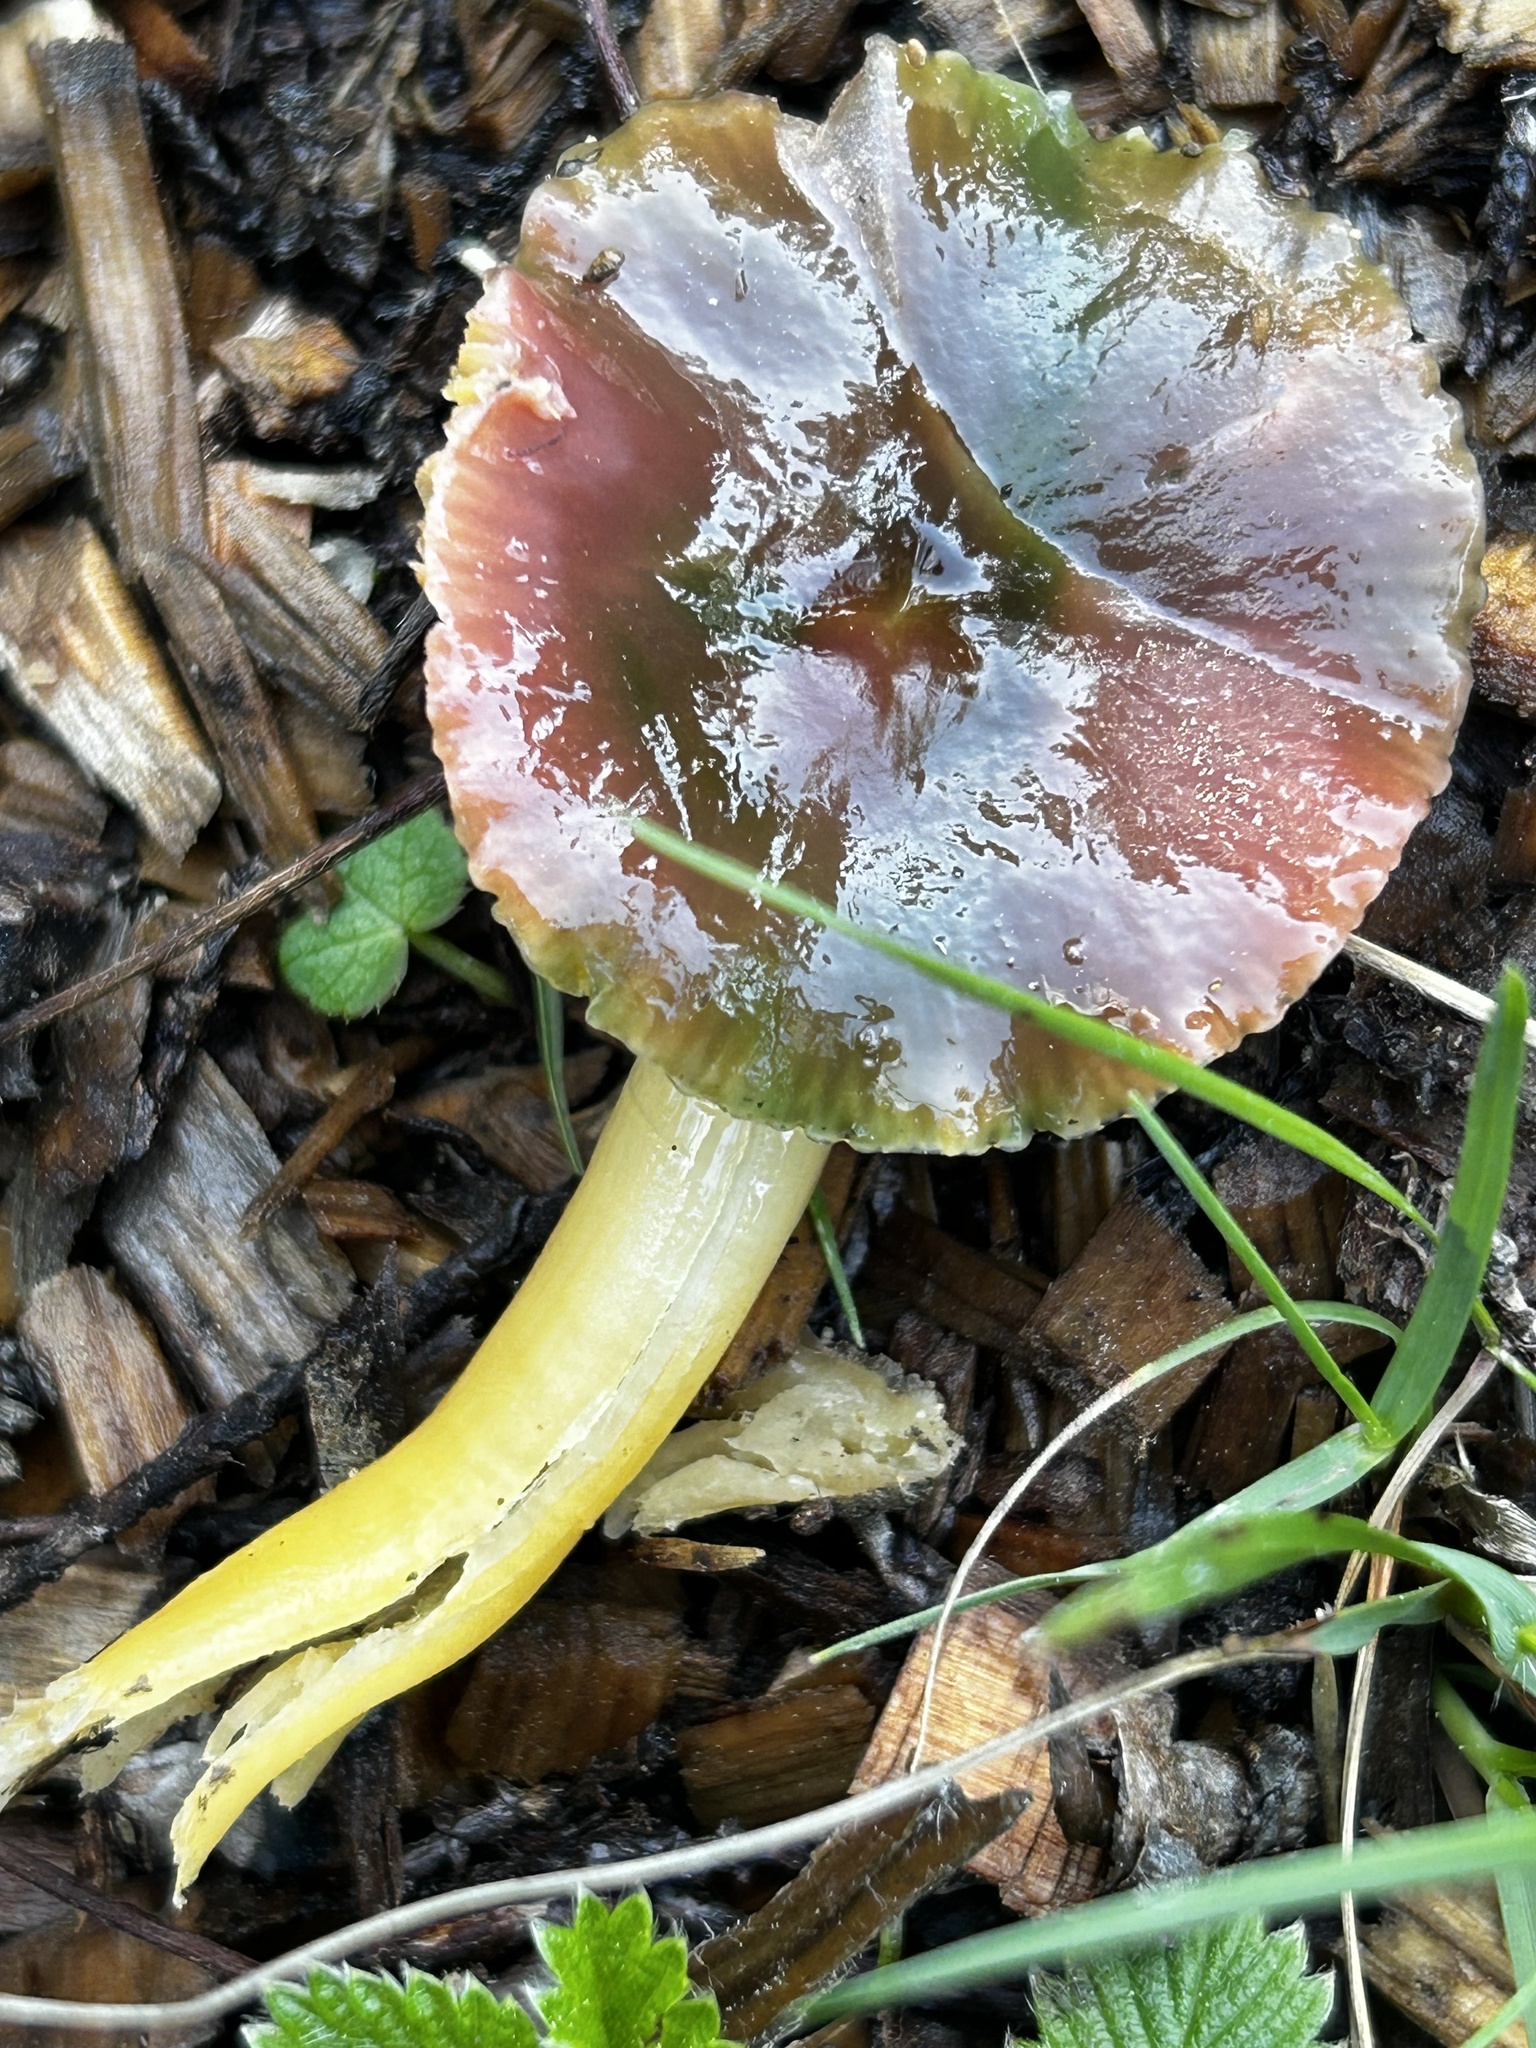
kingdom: Fungi
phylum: Basidiomycota
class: Agaricomycetes
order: Agaricales
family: Hygrophoraceae
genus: Gliophorus
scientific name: Gliophorus psittacinus
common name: Parrot wax-cap
